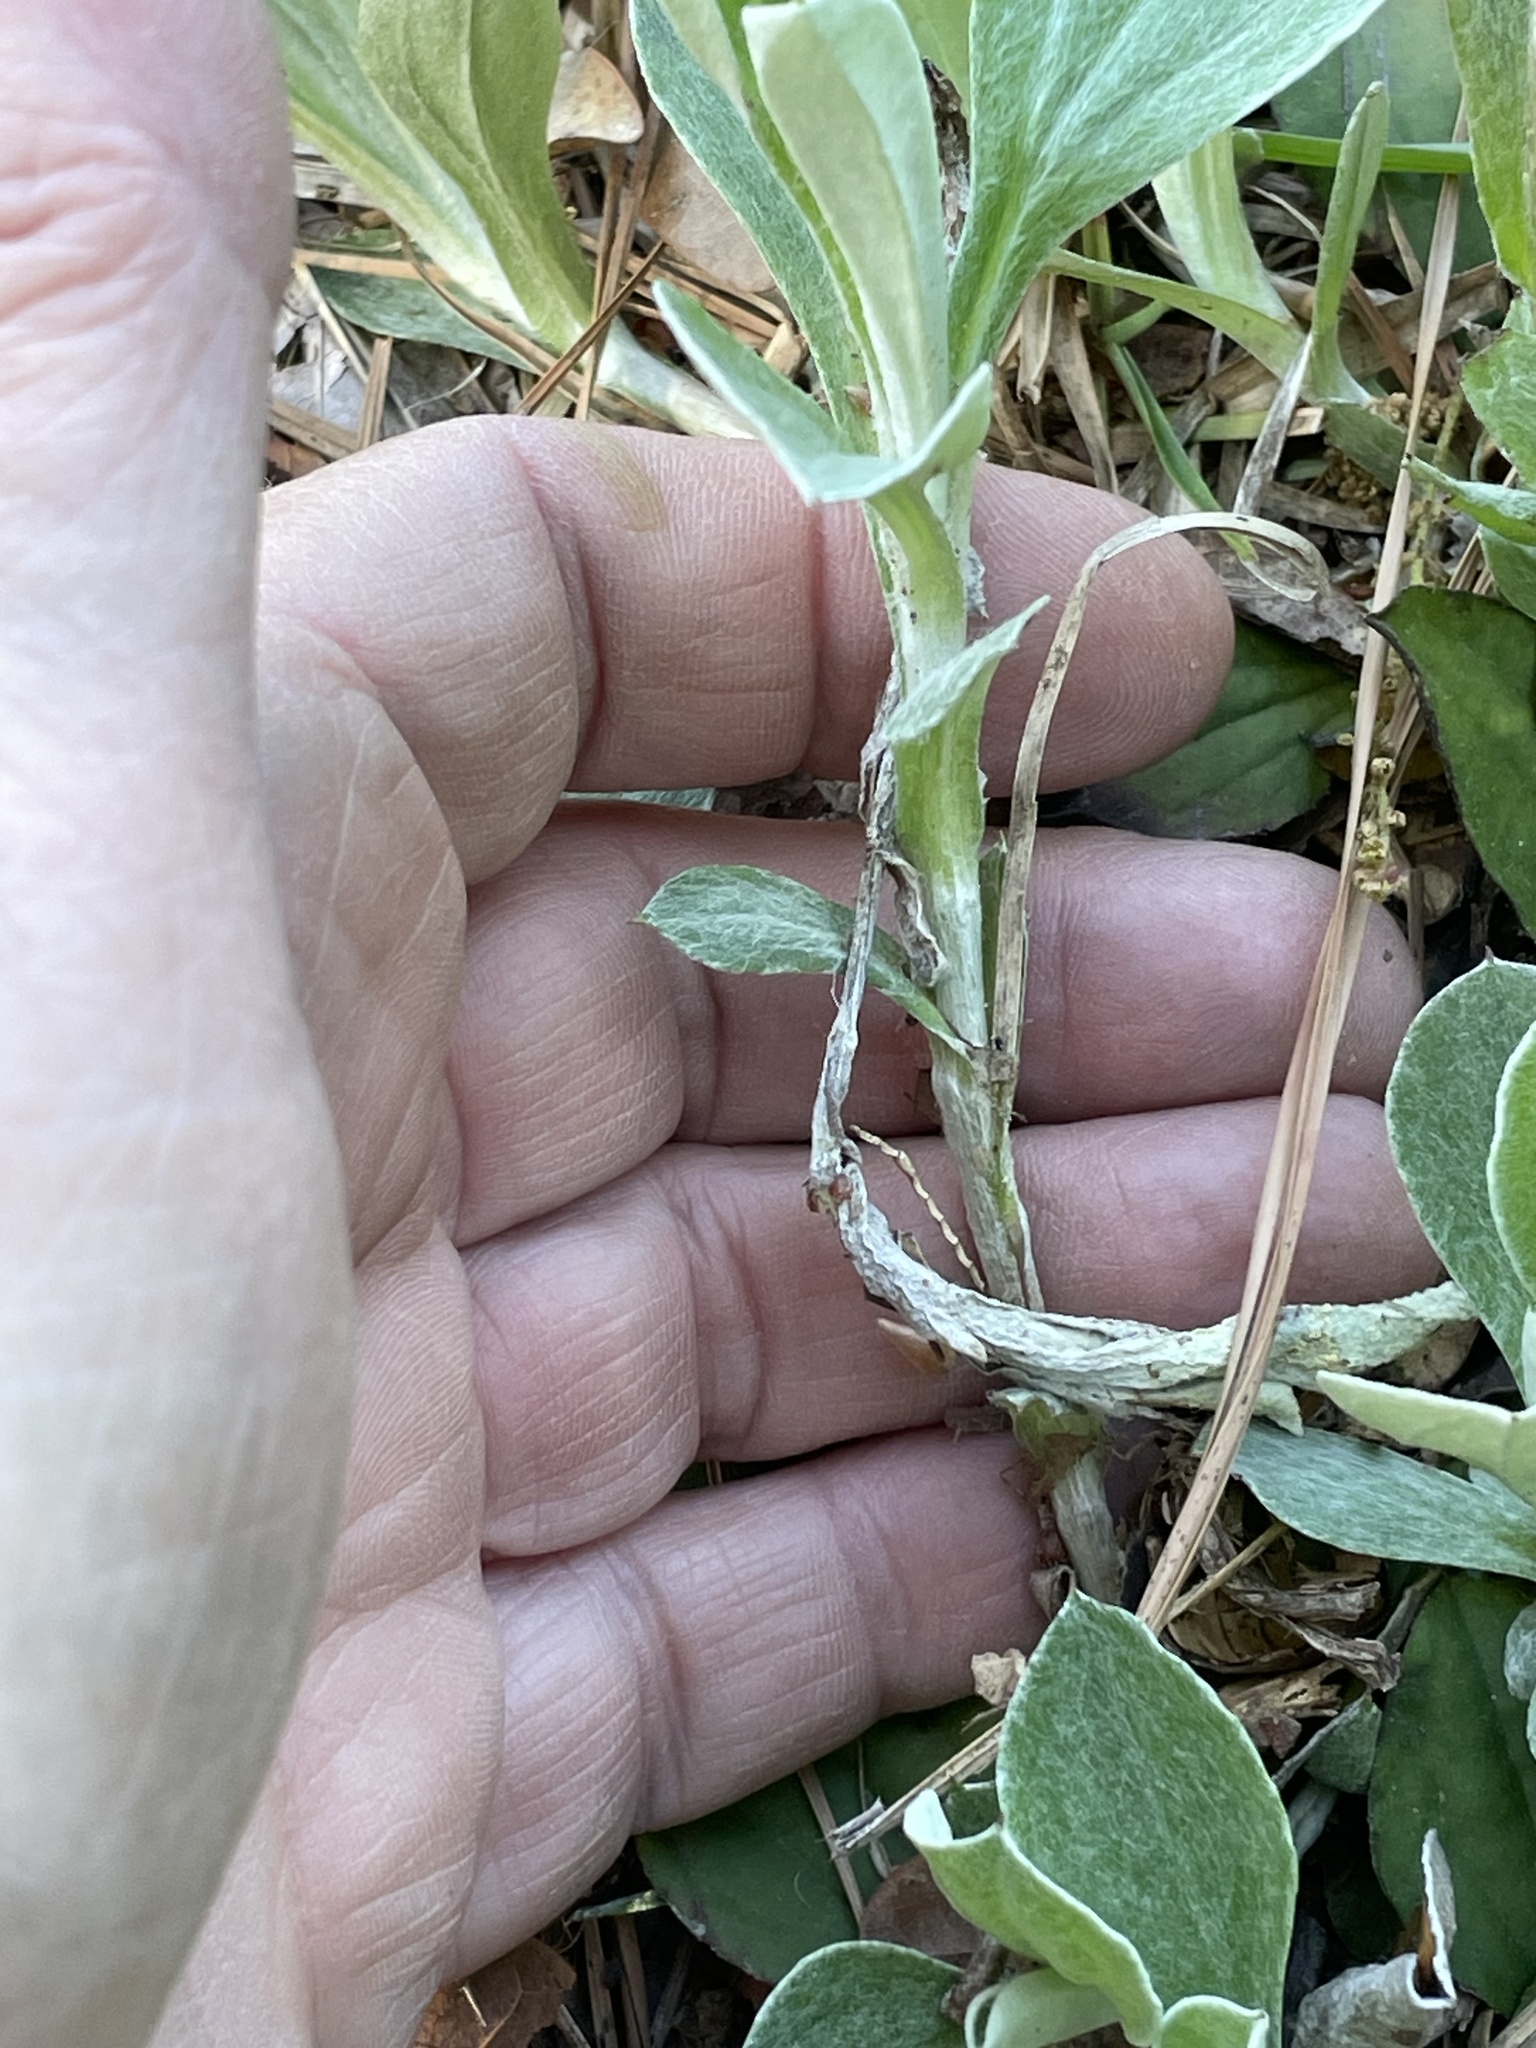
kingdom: Plantae
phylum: Tracheophyta
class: Magnoliopsida
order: Asterales
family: Asteraceae
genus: Antennaria
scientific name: Antennaria parlinii
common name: Parlin's pussytoes
